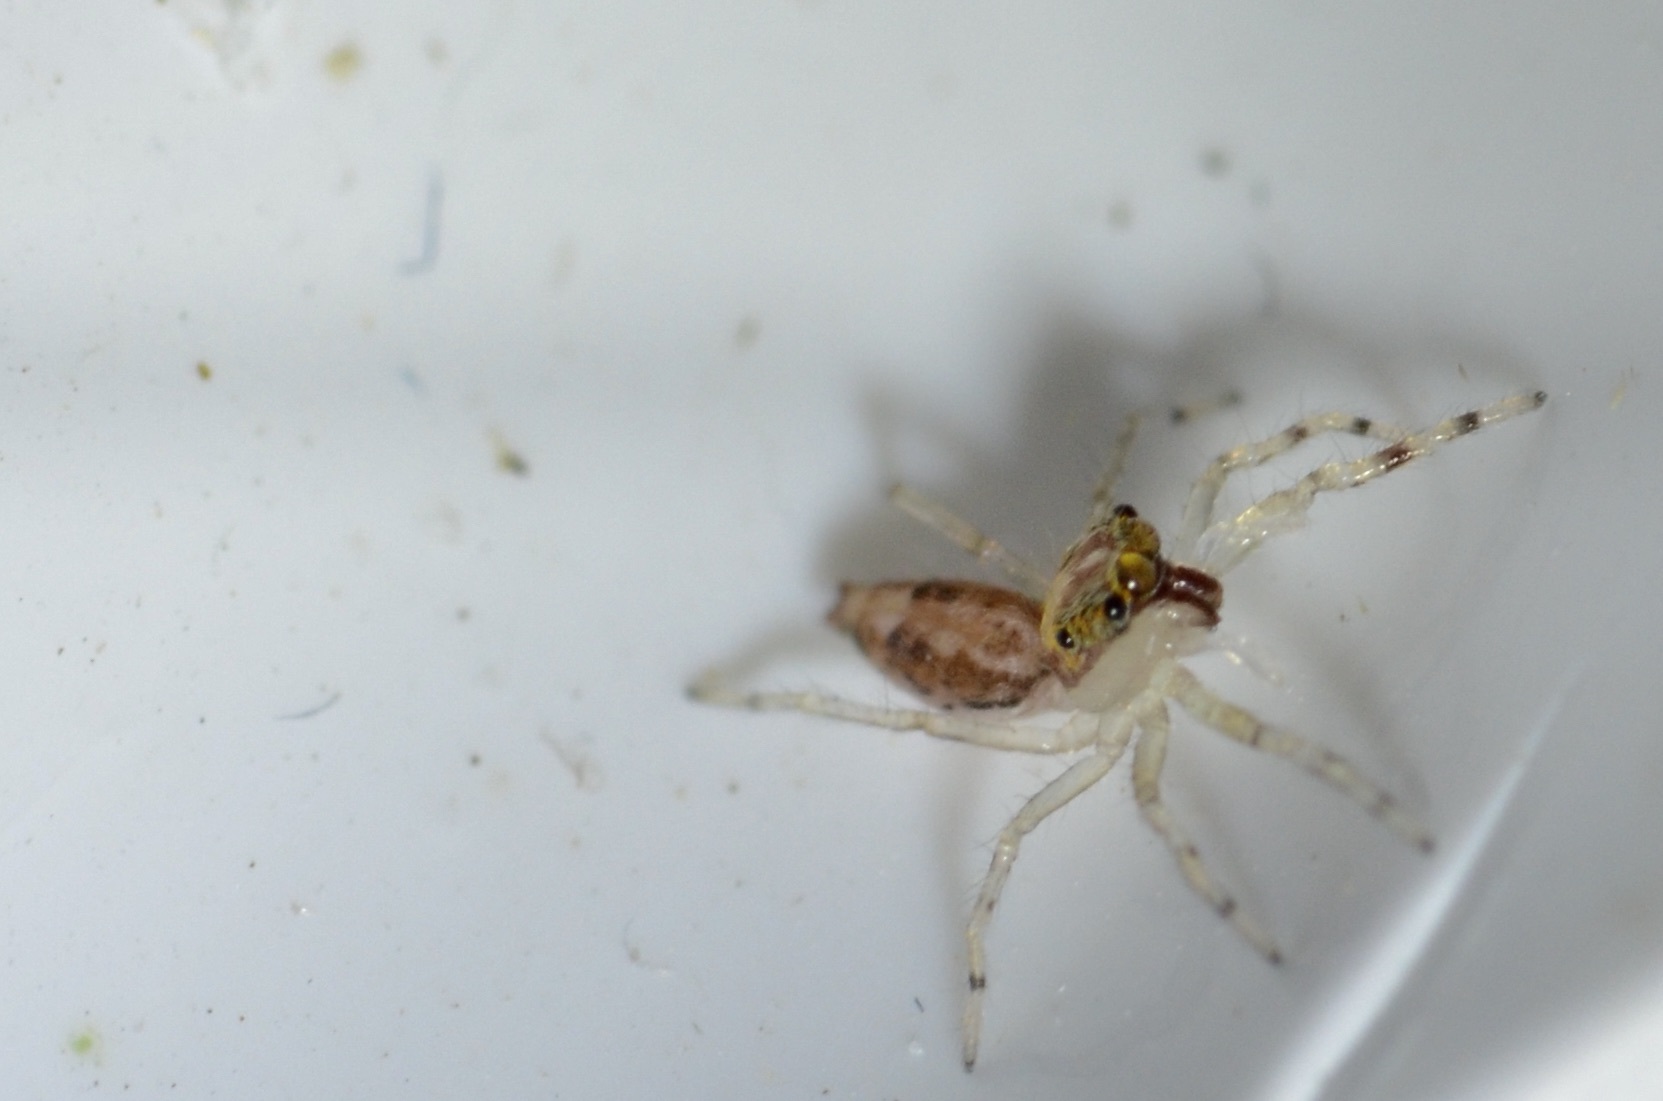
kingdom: Animalia
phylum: Arthropoda
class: Arachnida
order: Araneae
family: Salticidae
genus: Helpis
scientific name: Helpis minitabunda
